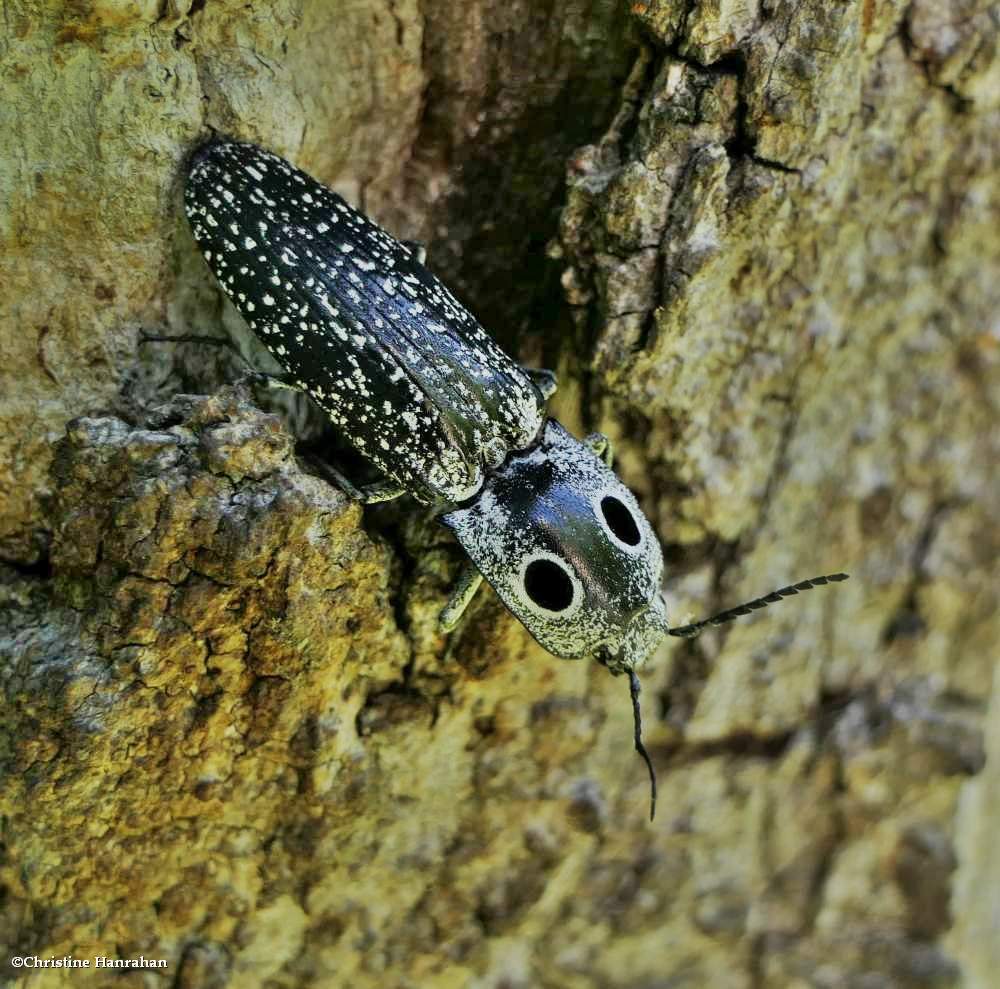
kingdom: Animalia
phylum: Arthropoda
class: Insecta
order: Coleoptera
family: Elateridae
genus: Alaus
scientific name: Alaus oculatus
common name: Eastern eyed click beetle
